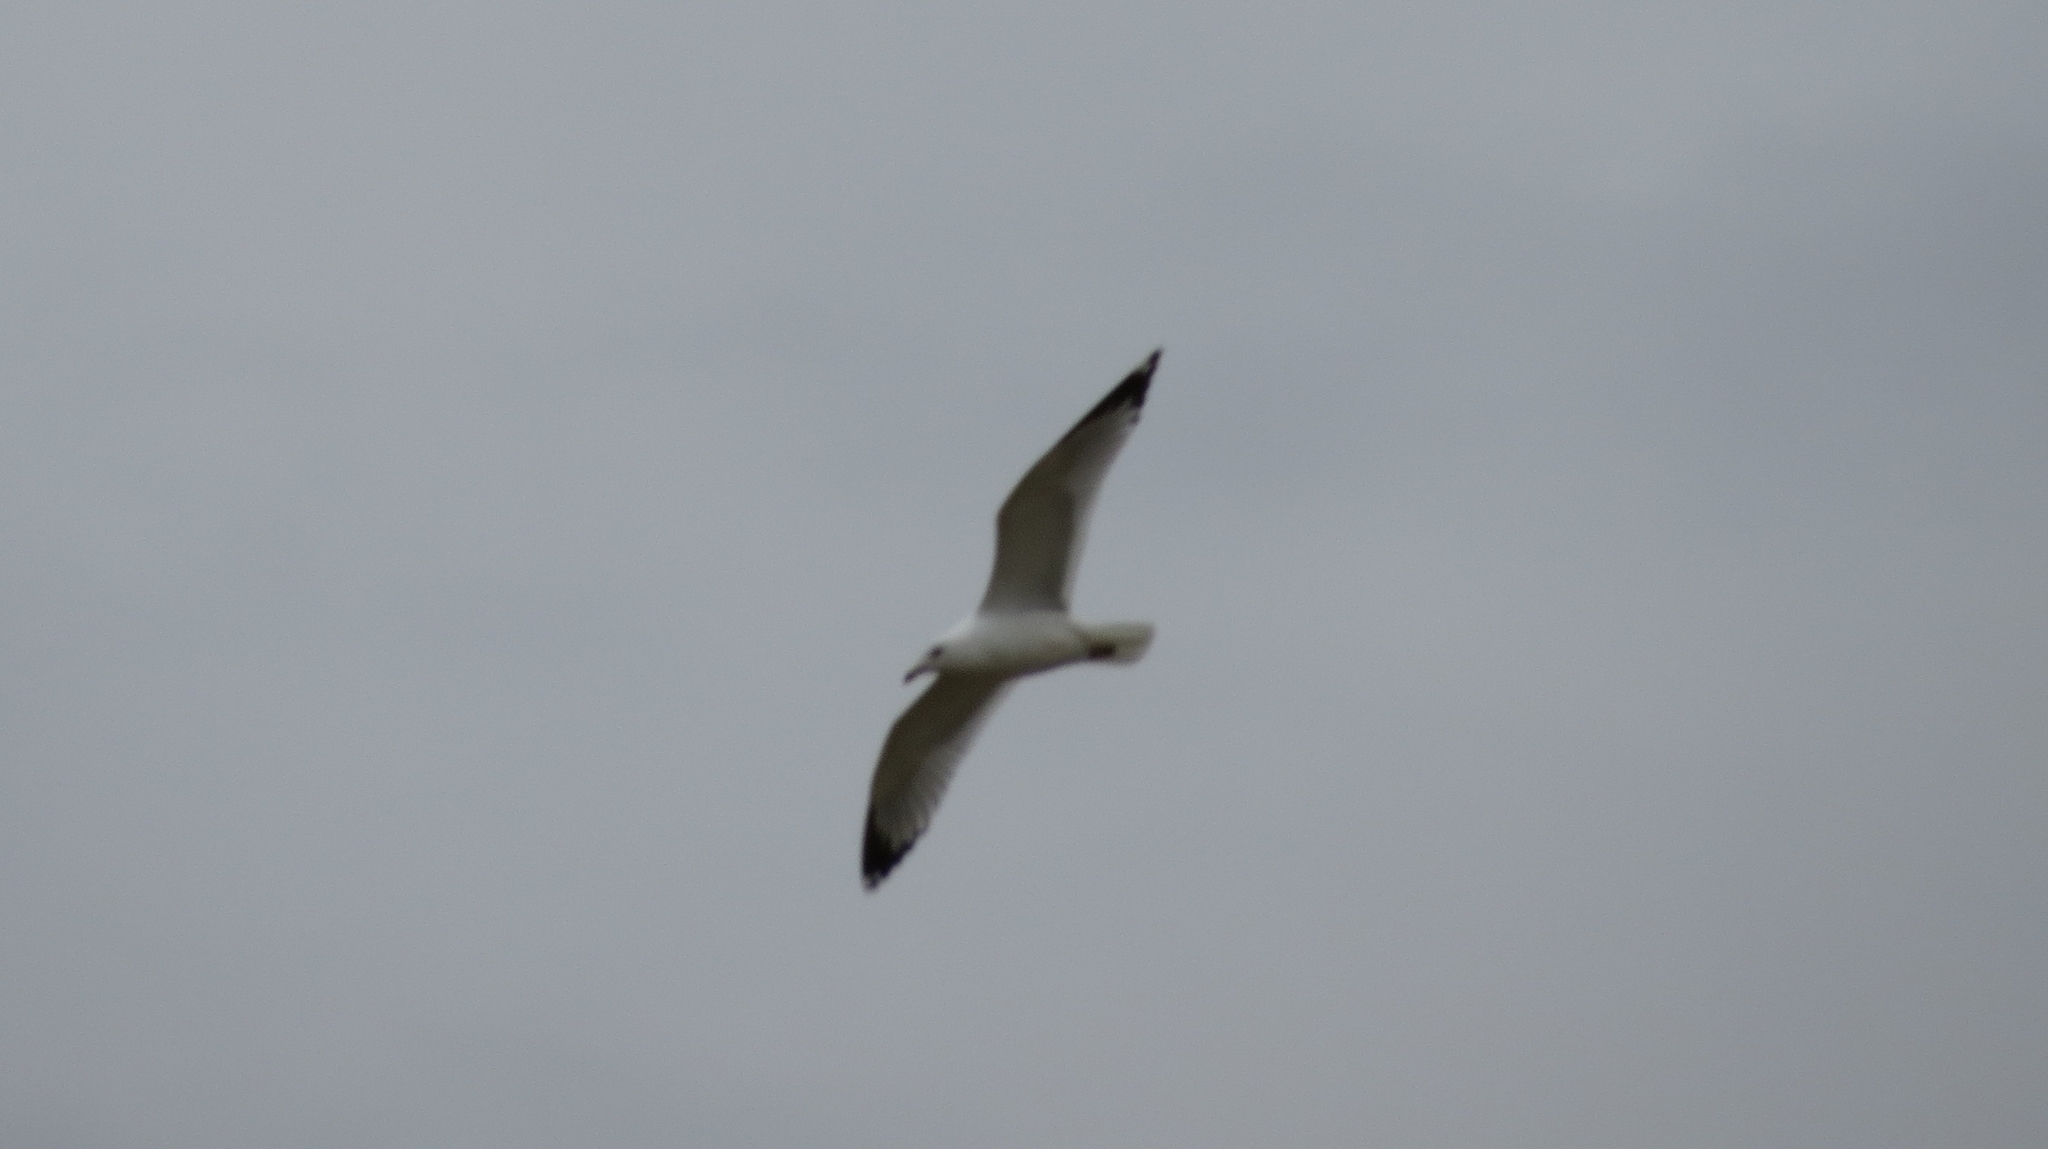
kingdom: Animalia
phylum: Chordata
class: Aves
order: Charadriiformes
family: Laridae
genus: Larus
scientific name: Larus delawarensis
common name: Ring-billed gull
